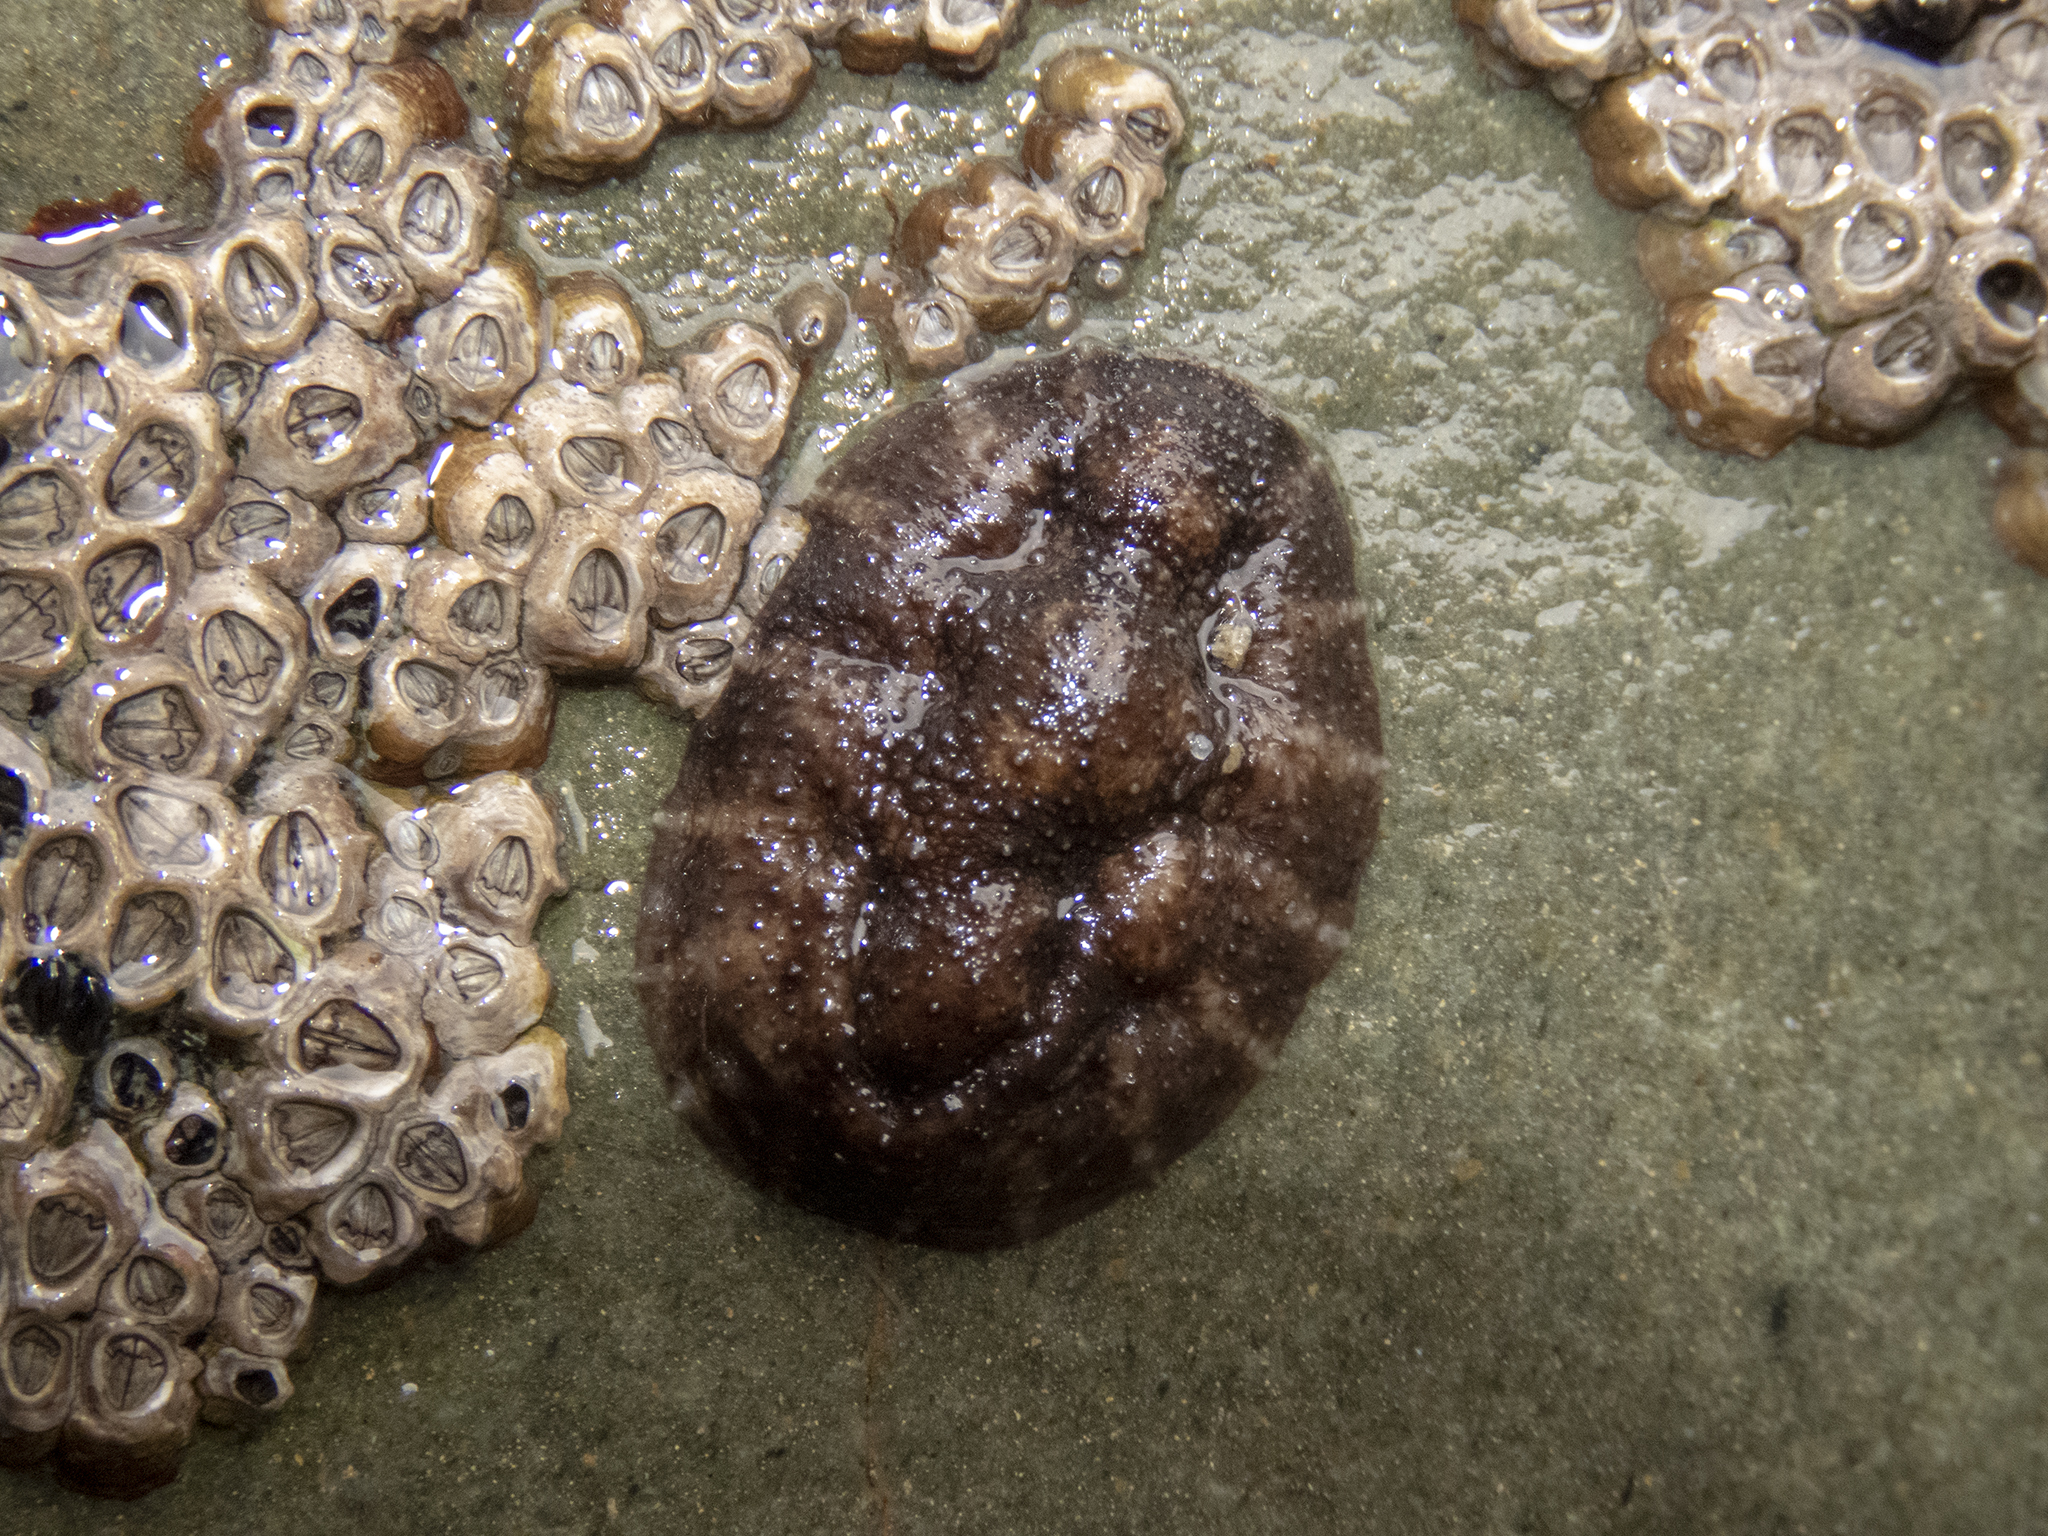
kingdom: Animalia
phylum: Mollusca
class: Gastropoda
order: Systellommatophora
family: Onchidiidae
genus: Onchidella
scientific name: Onchidella nigricans
